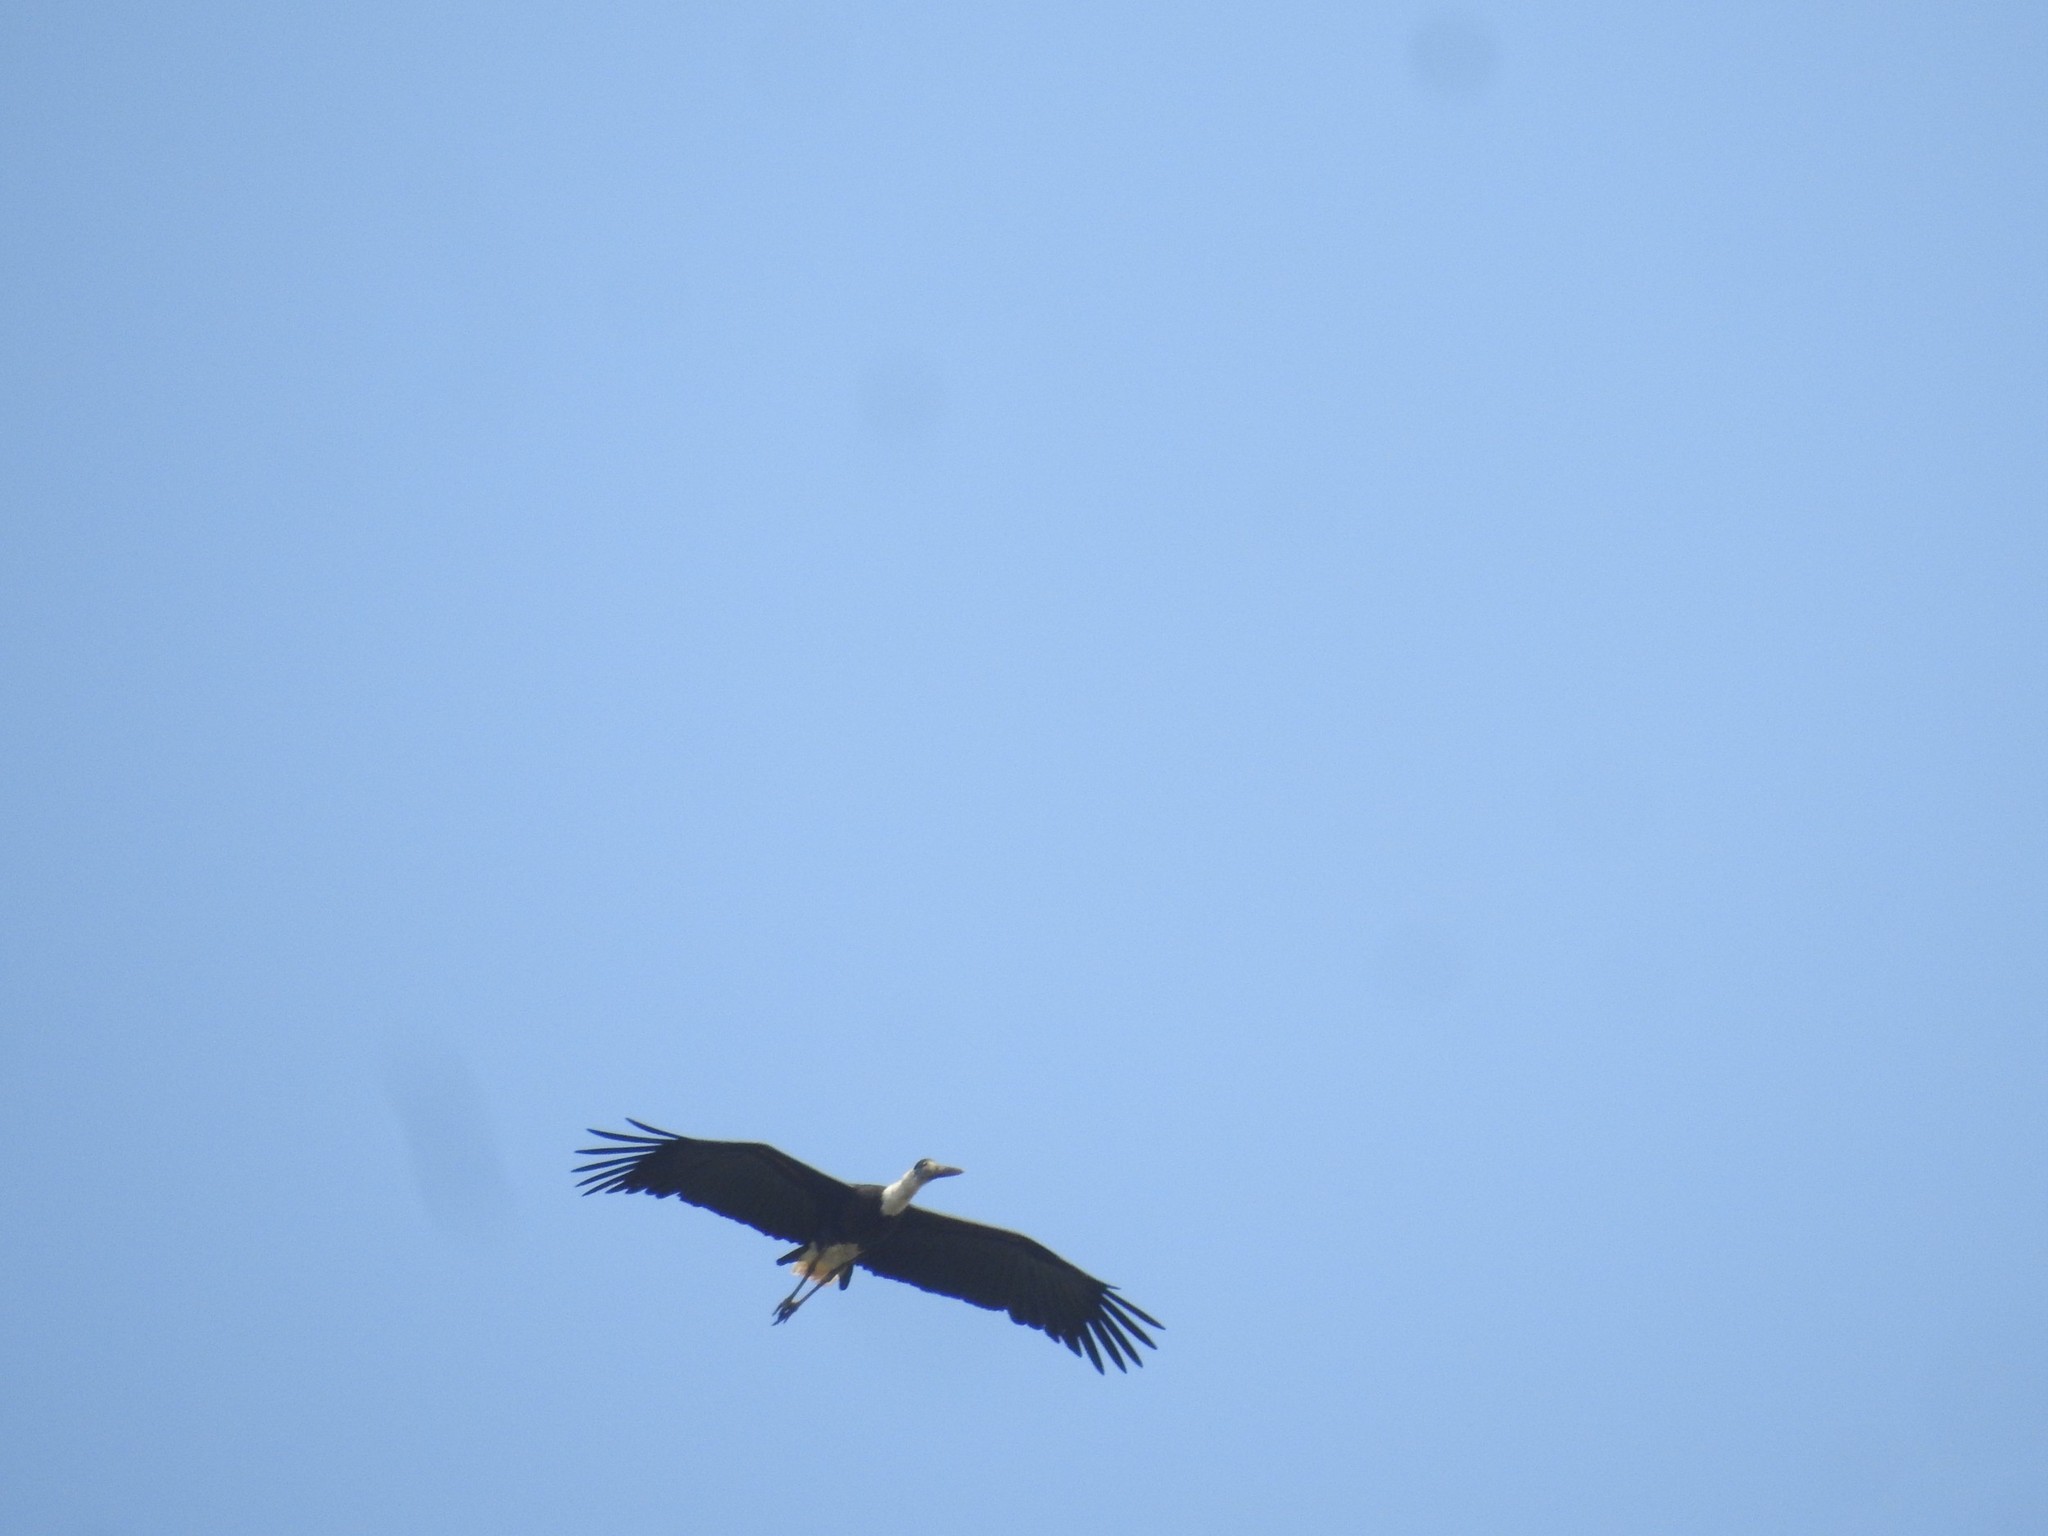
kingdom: Animalia
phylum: Chordata
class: Aves
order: Ciconiiformes
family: Ciconiidae
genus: Ciconia
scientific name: Ciconia episcopus
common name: Woolly-necked stork
